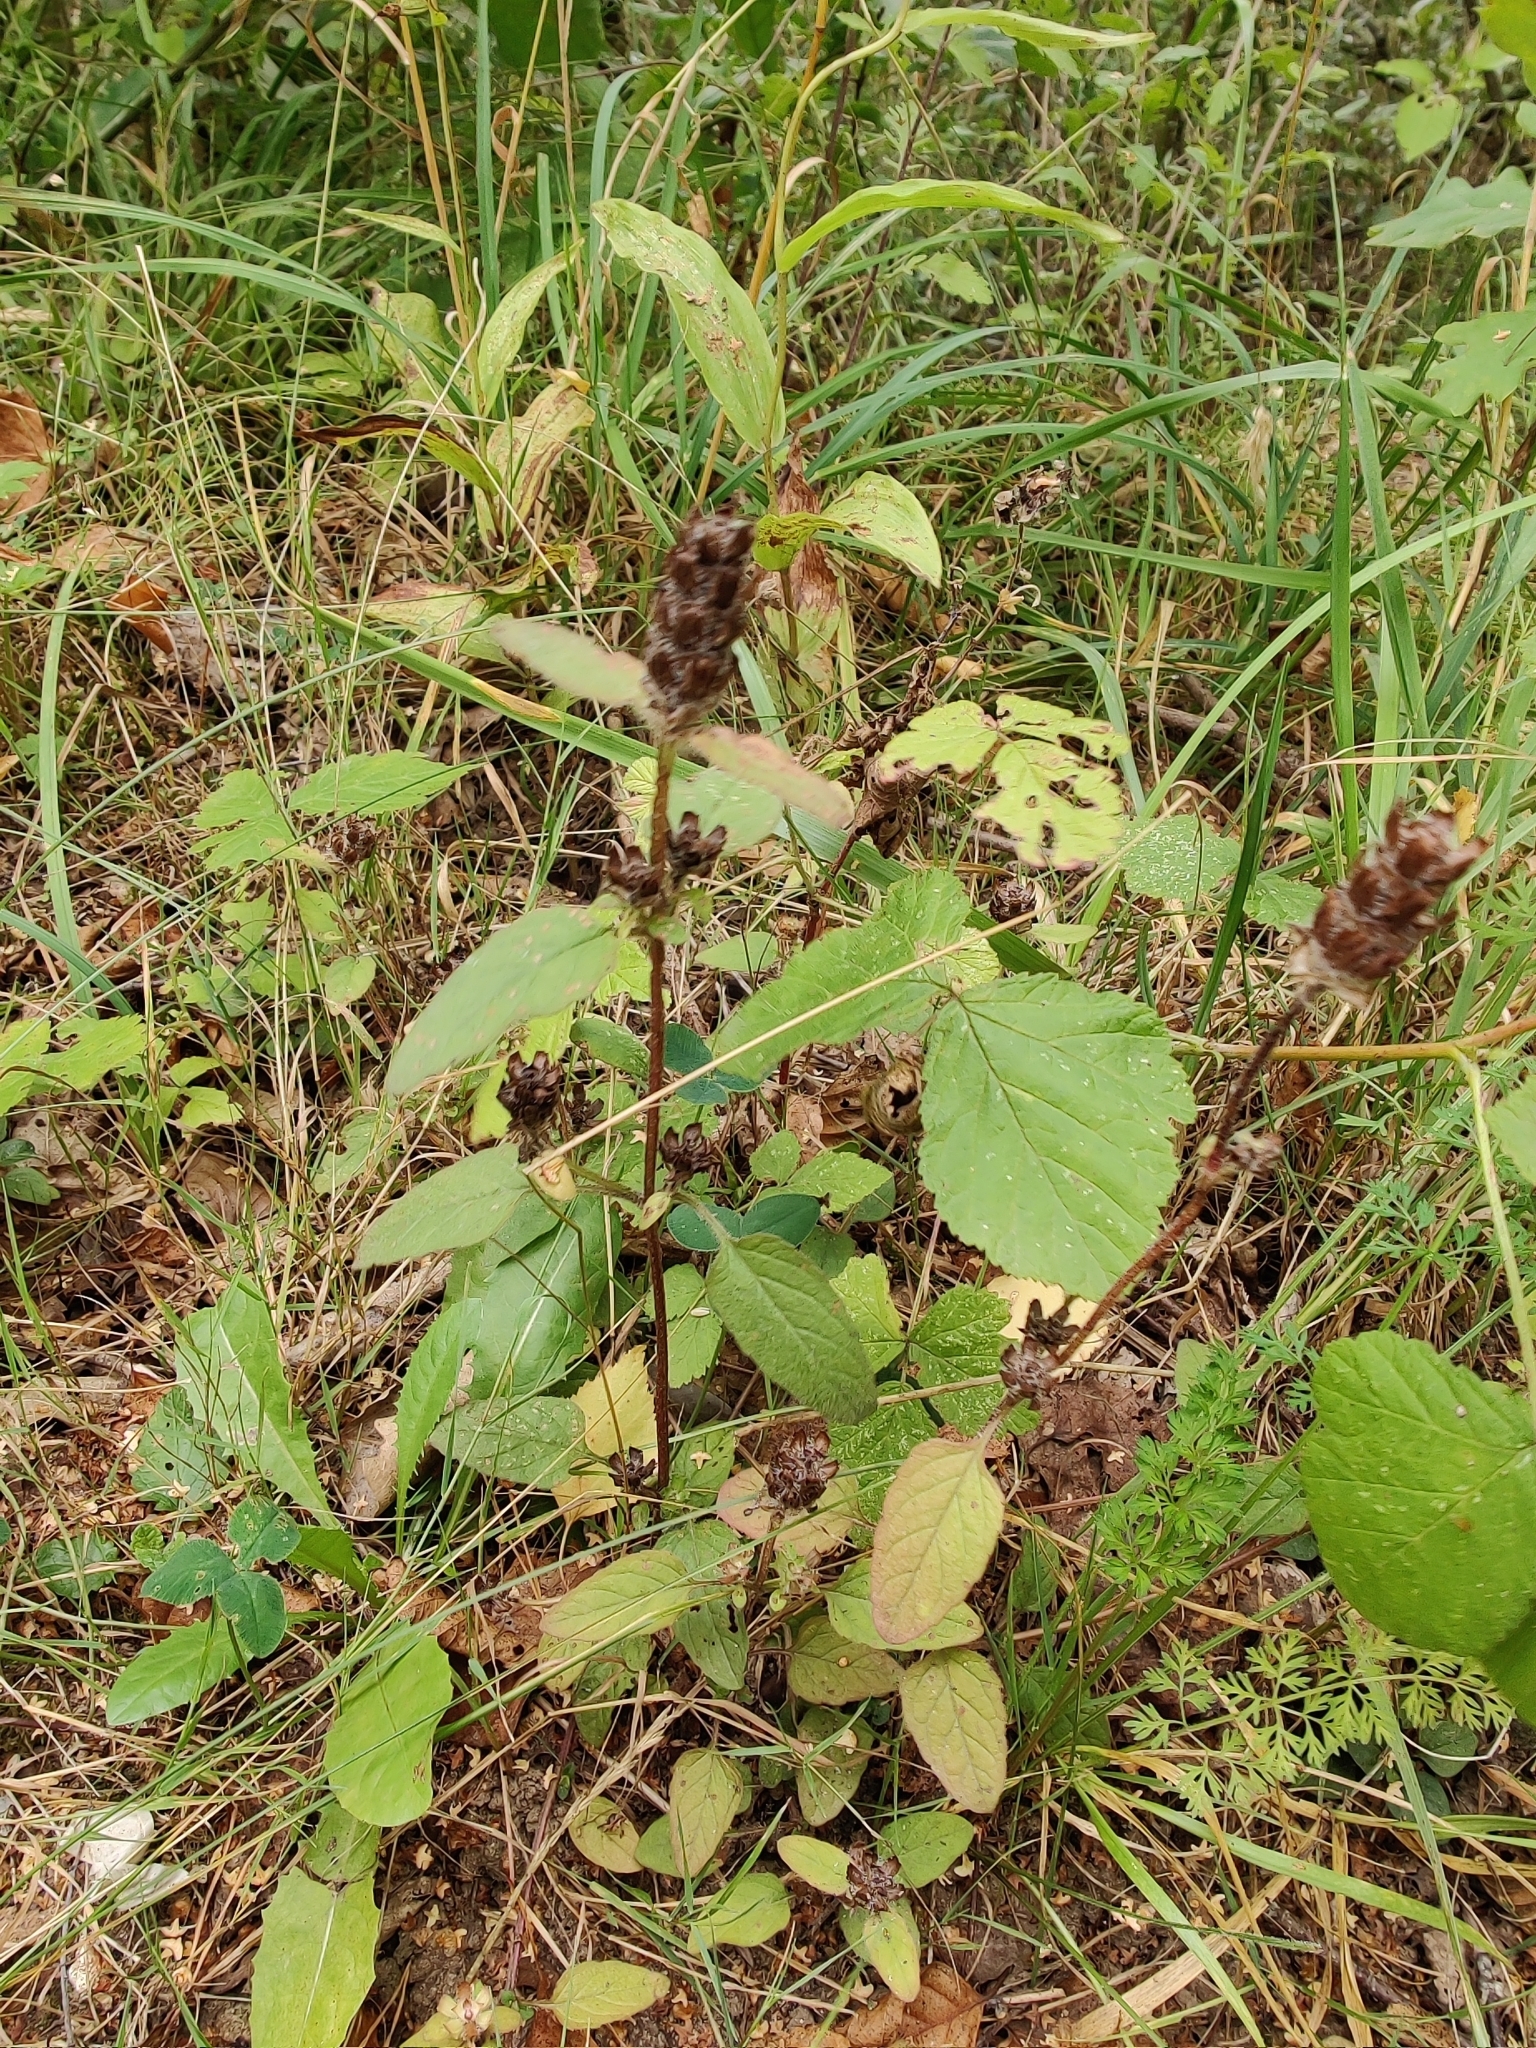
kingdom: Plantae
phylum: Tracheophyta
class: Magnoliopsida
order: Lamiales
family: Lamiaceae
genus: Prunella
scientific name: Prunella vulgaris
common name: Heal-all
